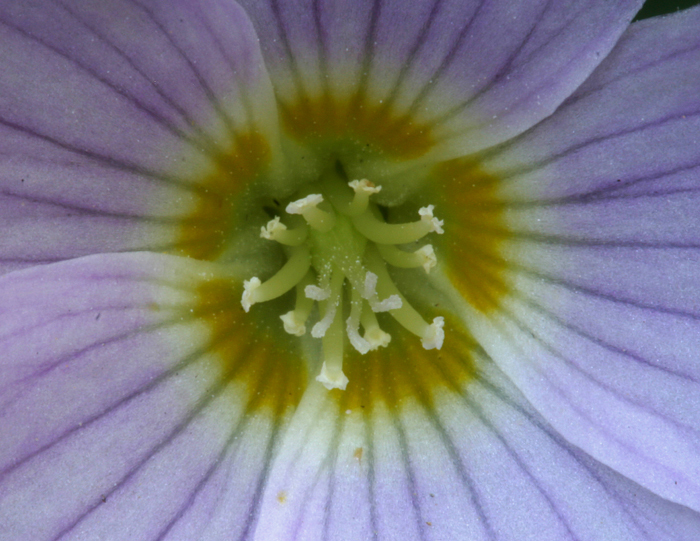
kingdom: Plantae
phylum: Tracheophyta
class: Magnoliopsida
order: Oxalidales
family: Oxalidaceae
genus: Oxalis
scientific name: Oxalis oregana
